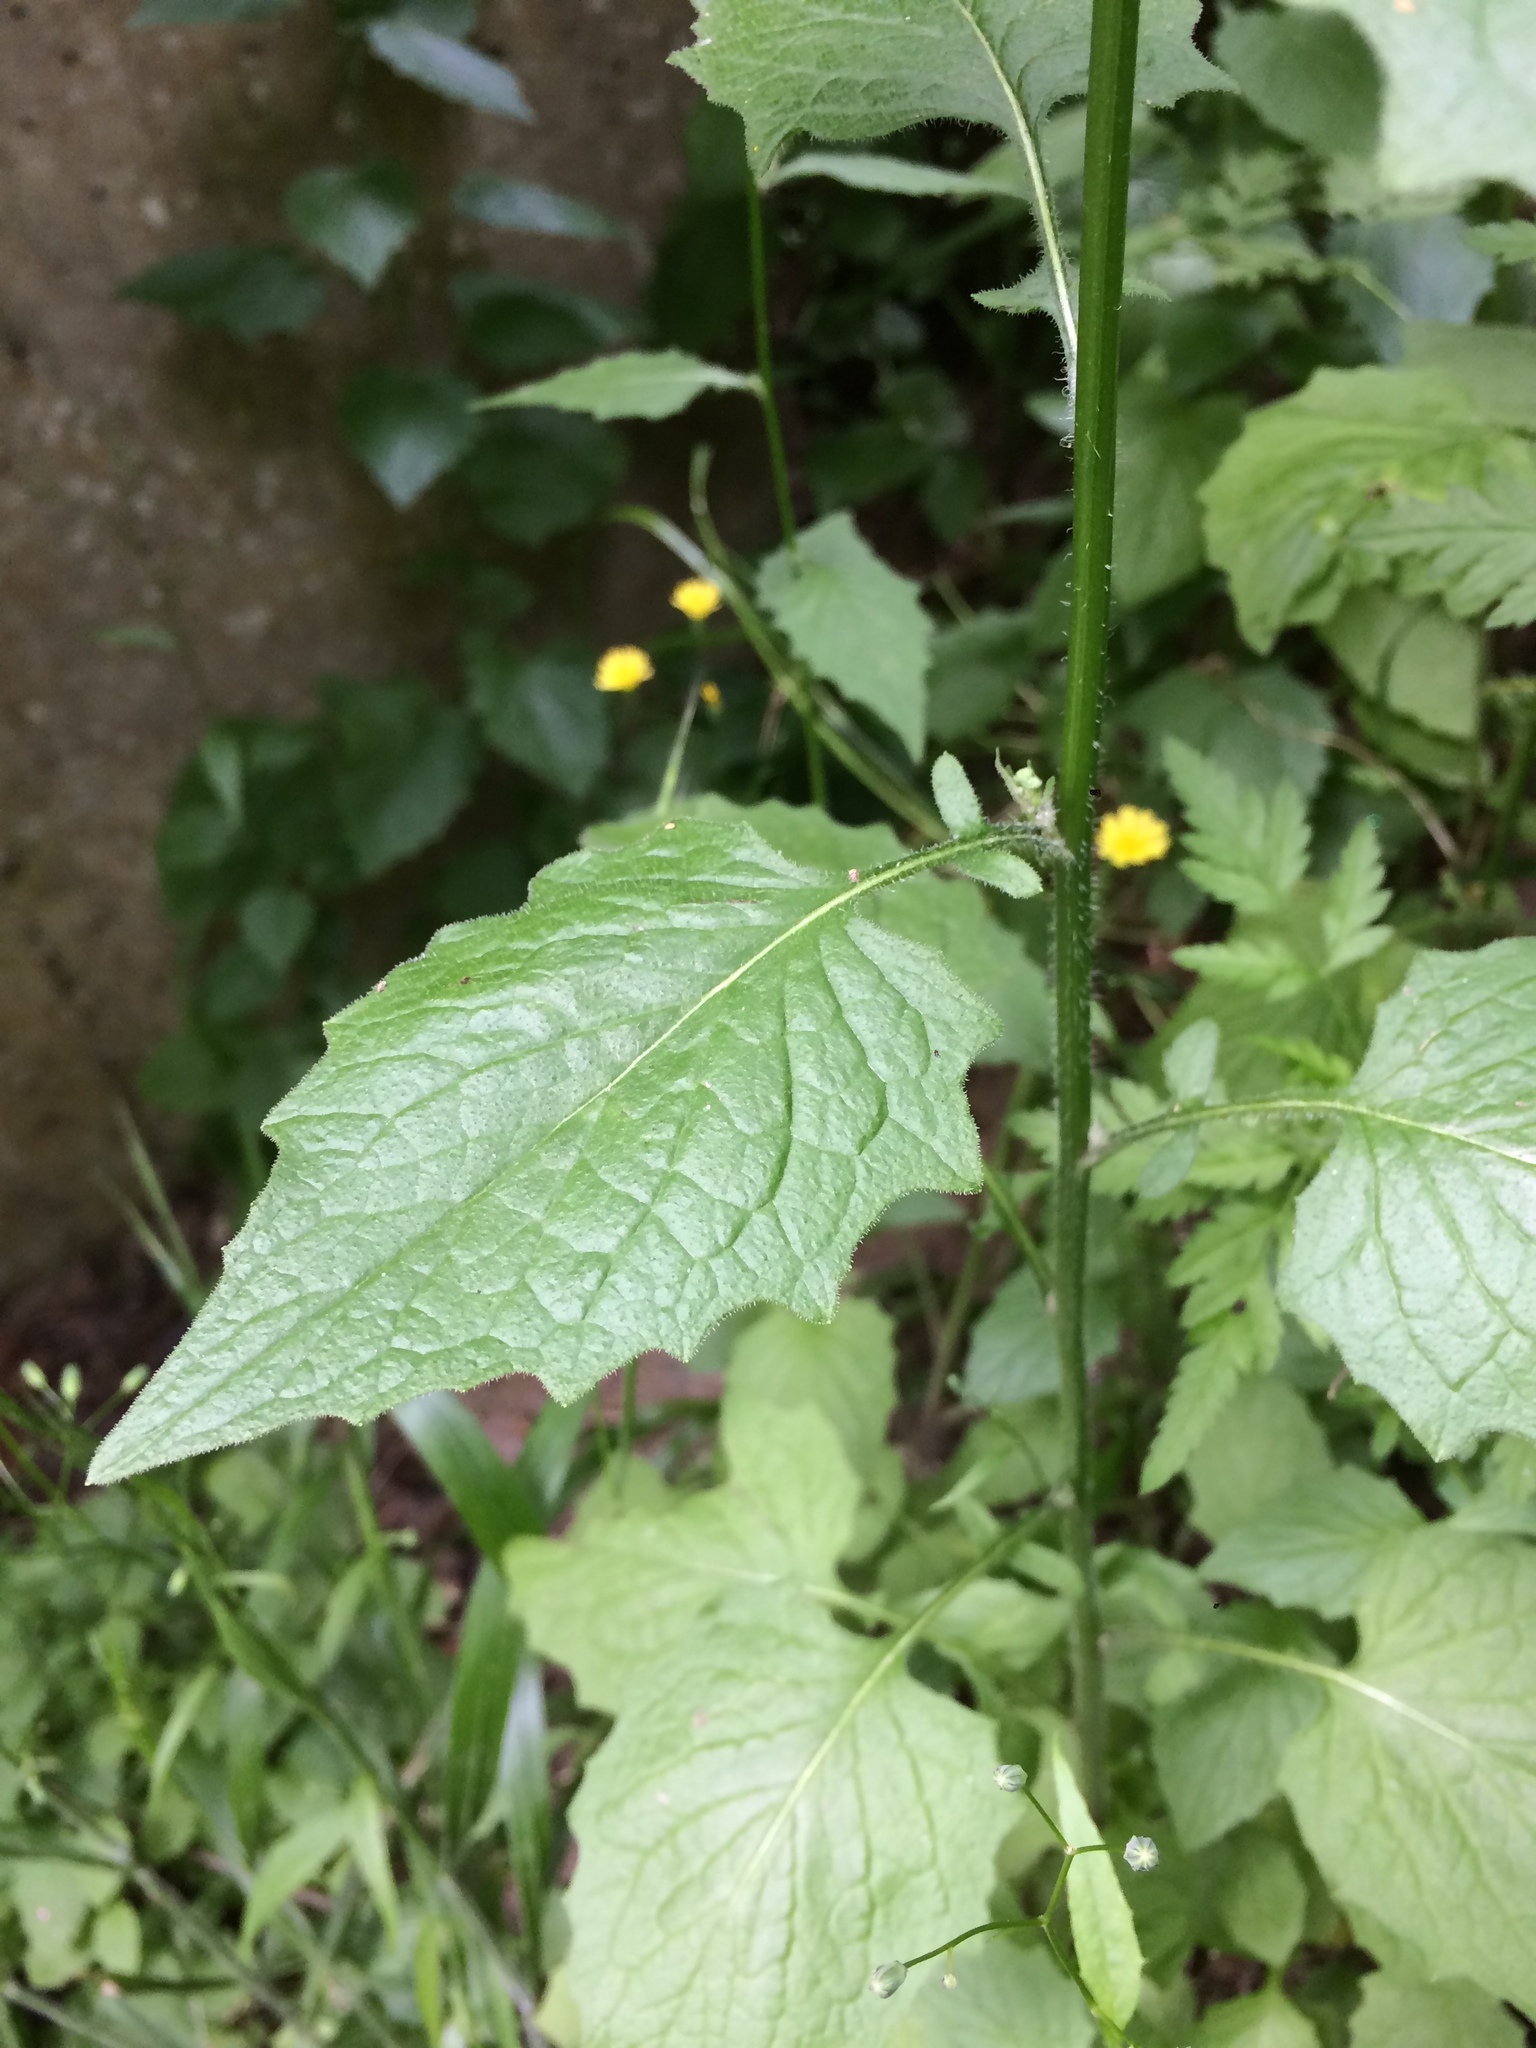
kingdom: Plantae
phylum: Tracheophyta
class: Magnoliopsida
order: Asterales
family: Asteraceae
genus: Lapsana
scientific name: Lapsana communis
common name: Nipplewort
